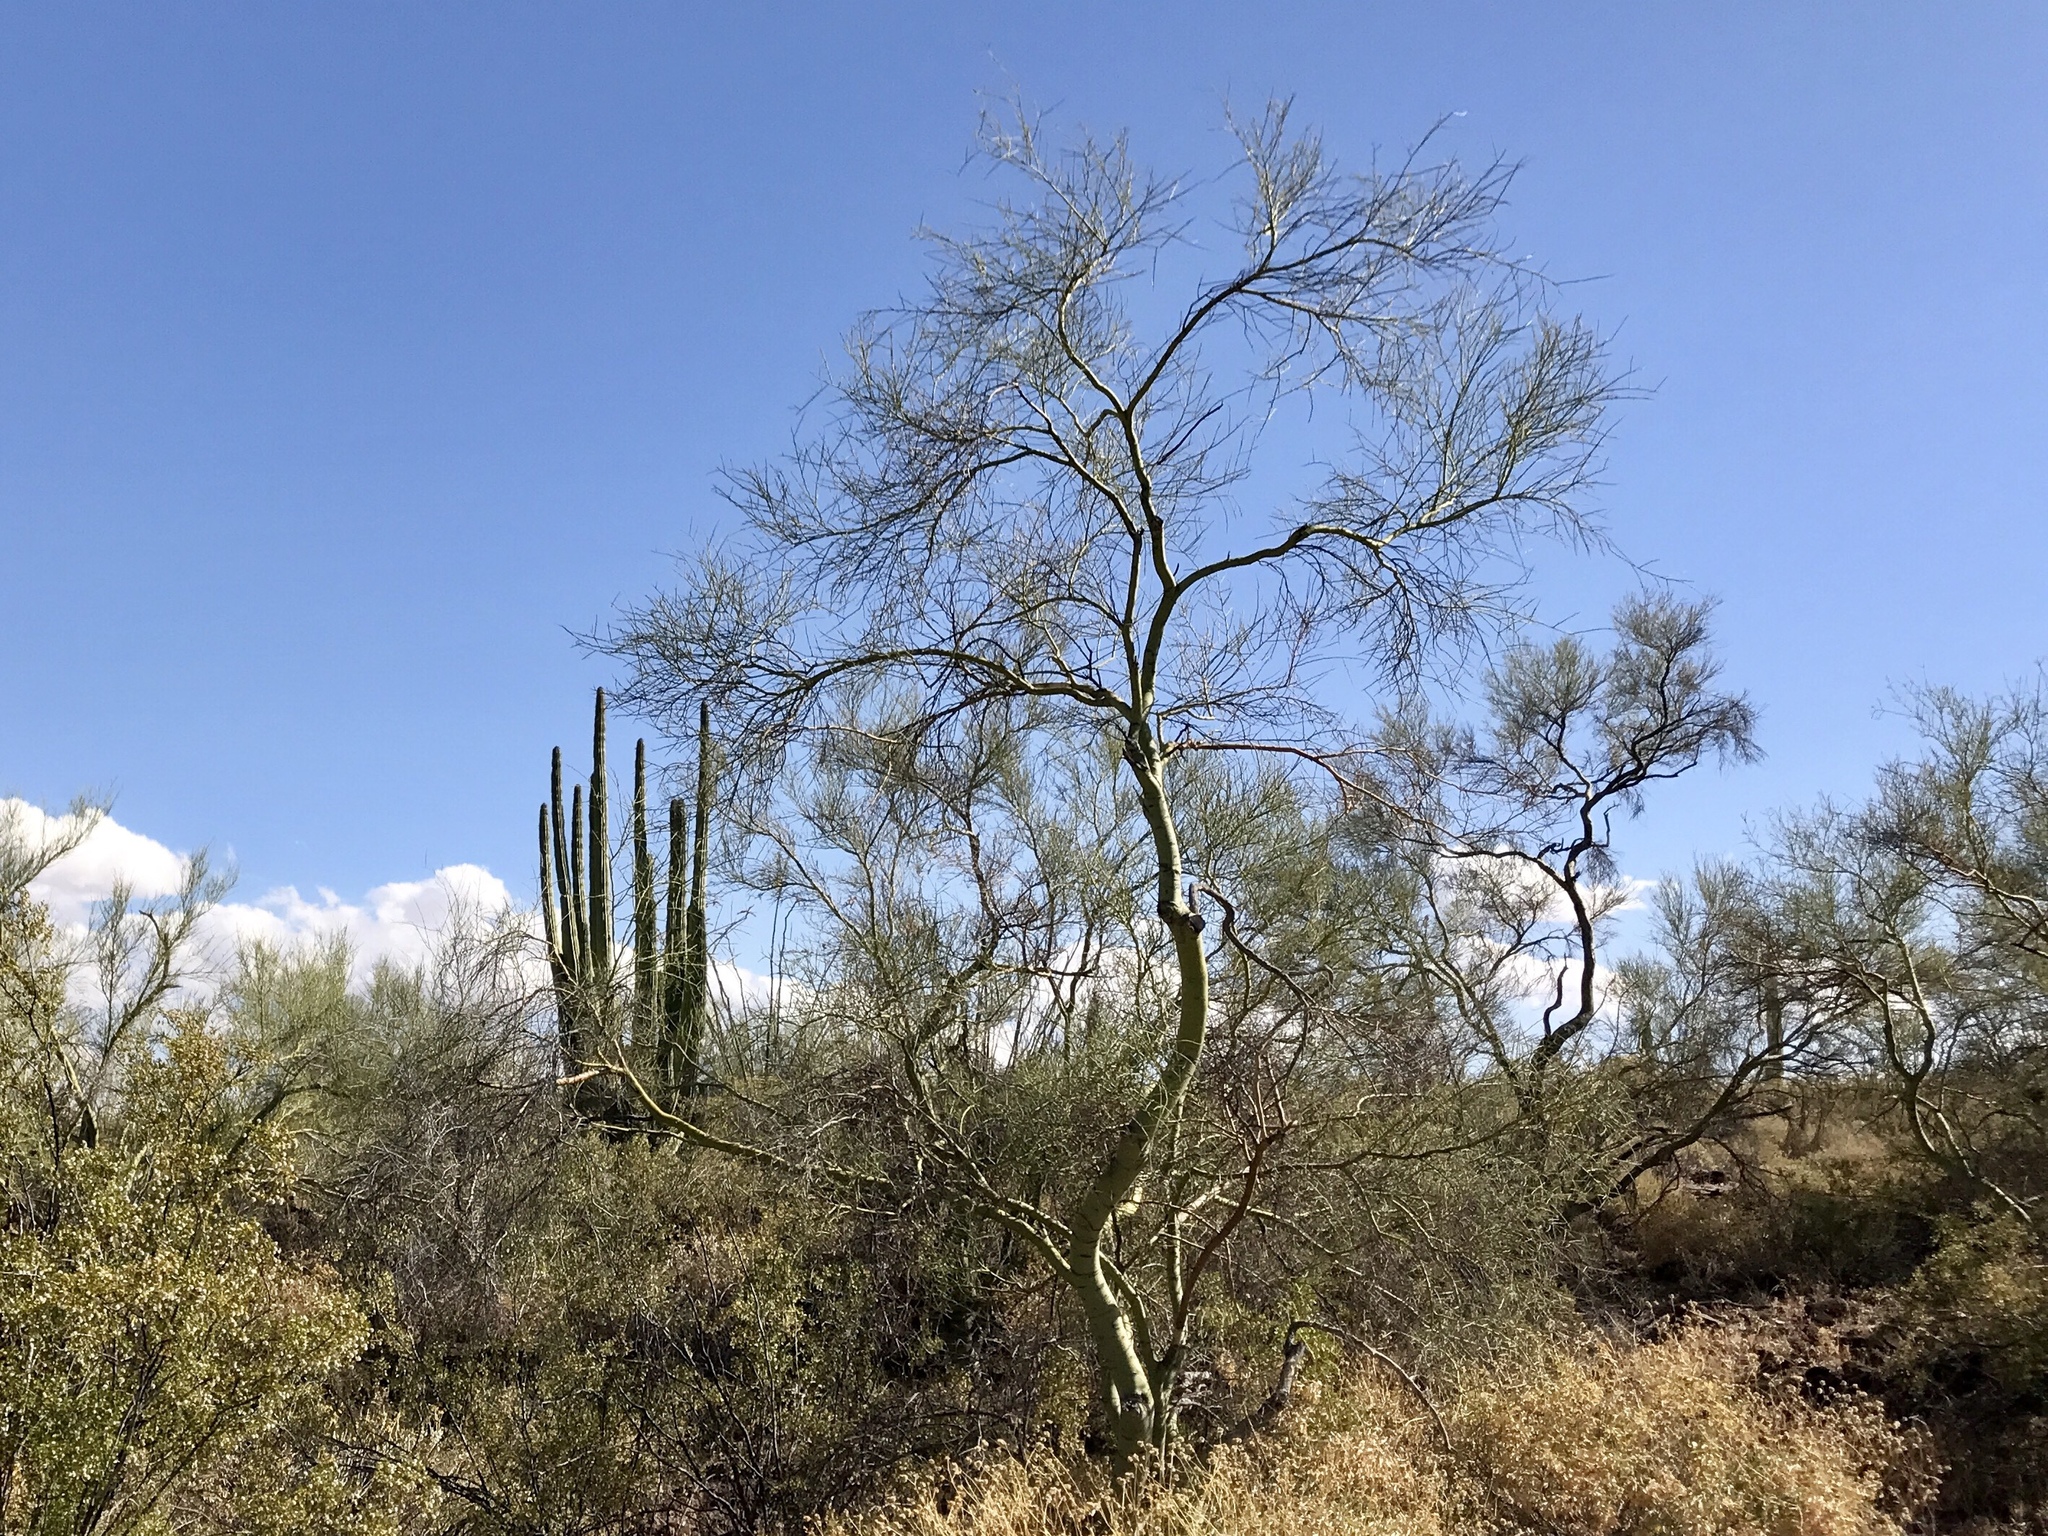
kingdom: Plantae
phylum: Tracheophyta
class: Magnoliopsida
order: Fabales
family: Fabaceae
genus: Parkinsonia
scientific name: Parkinsonia microphylla
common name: Yellow paloverde
